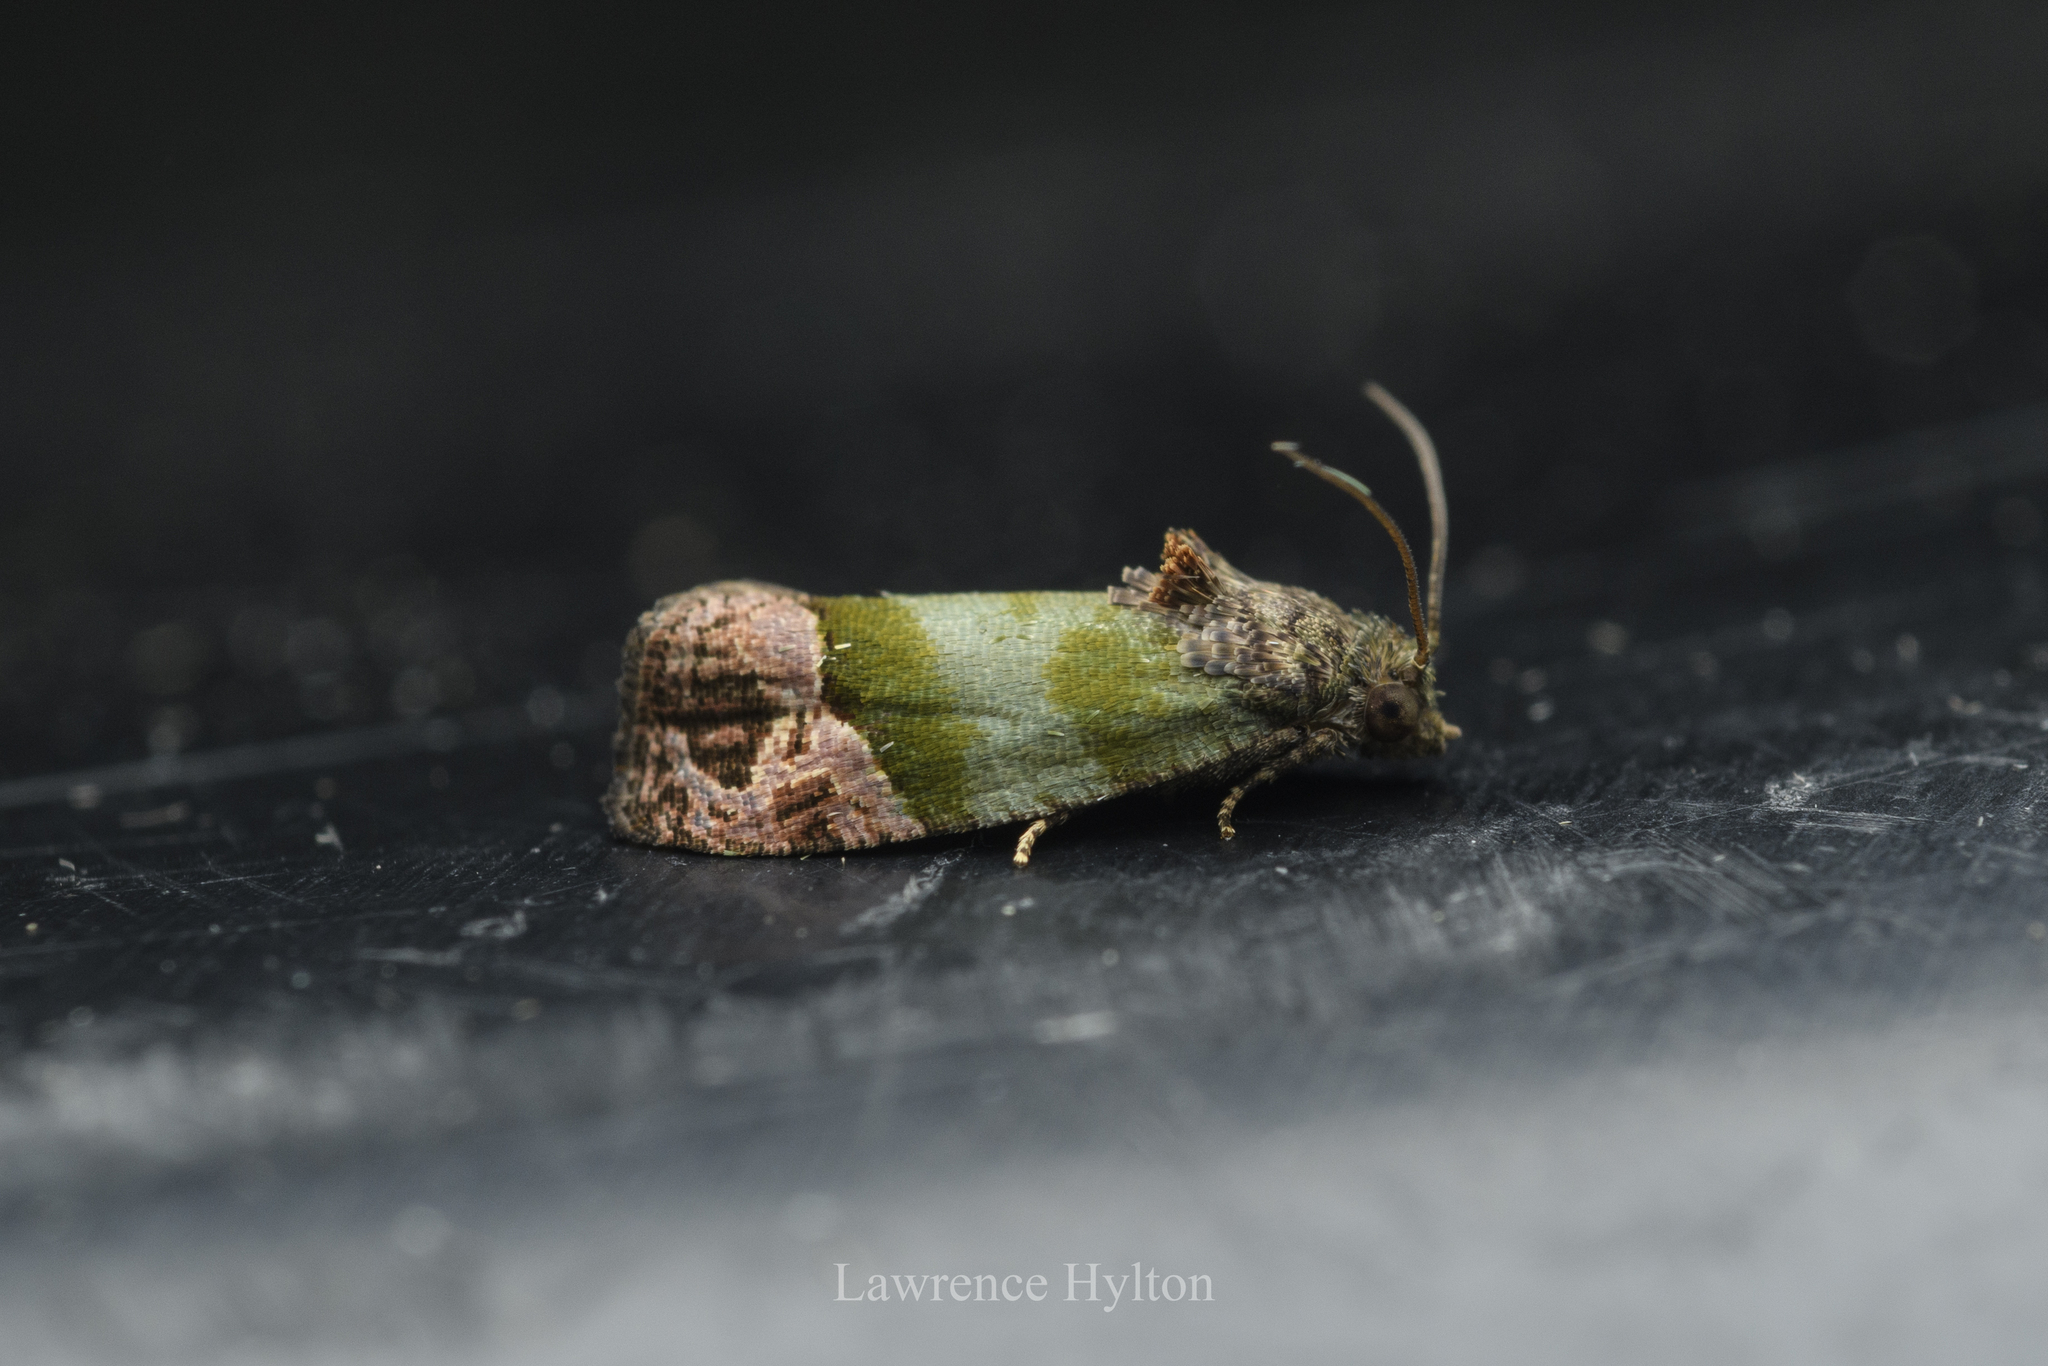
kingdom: Animalia
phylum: Arthropoda
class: Insecta
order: Lepidoptera
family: Tortricidae
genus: Sorolopha
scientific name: Sorolopha liochlora
